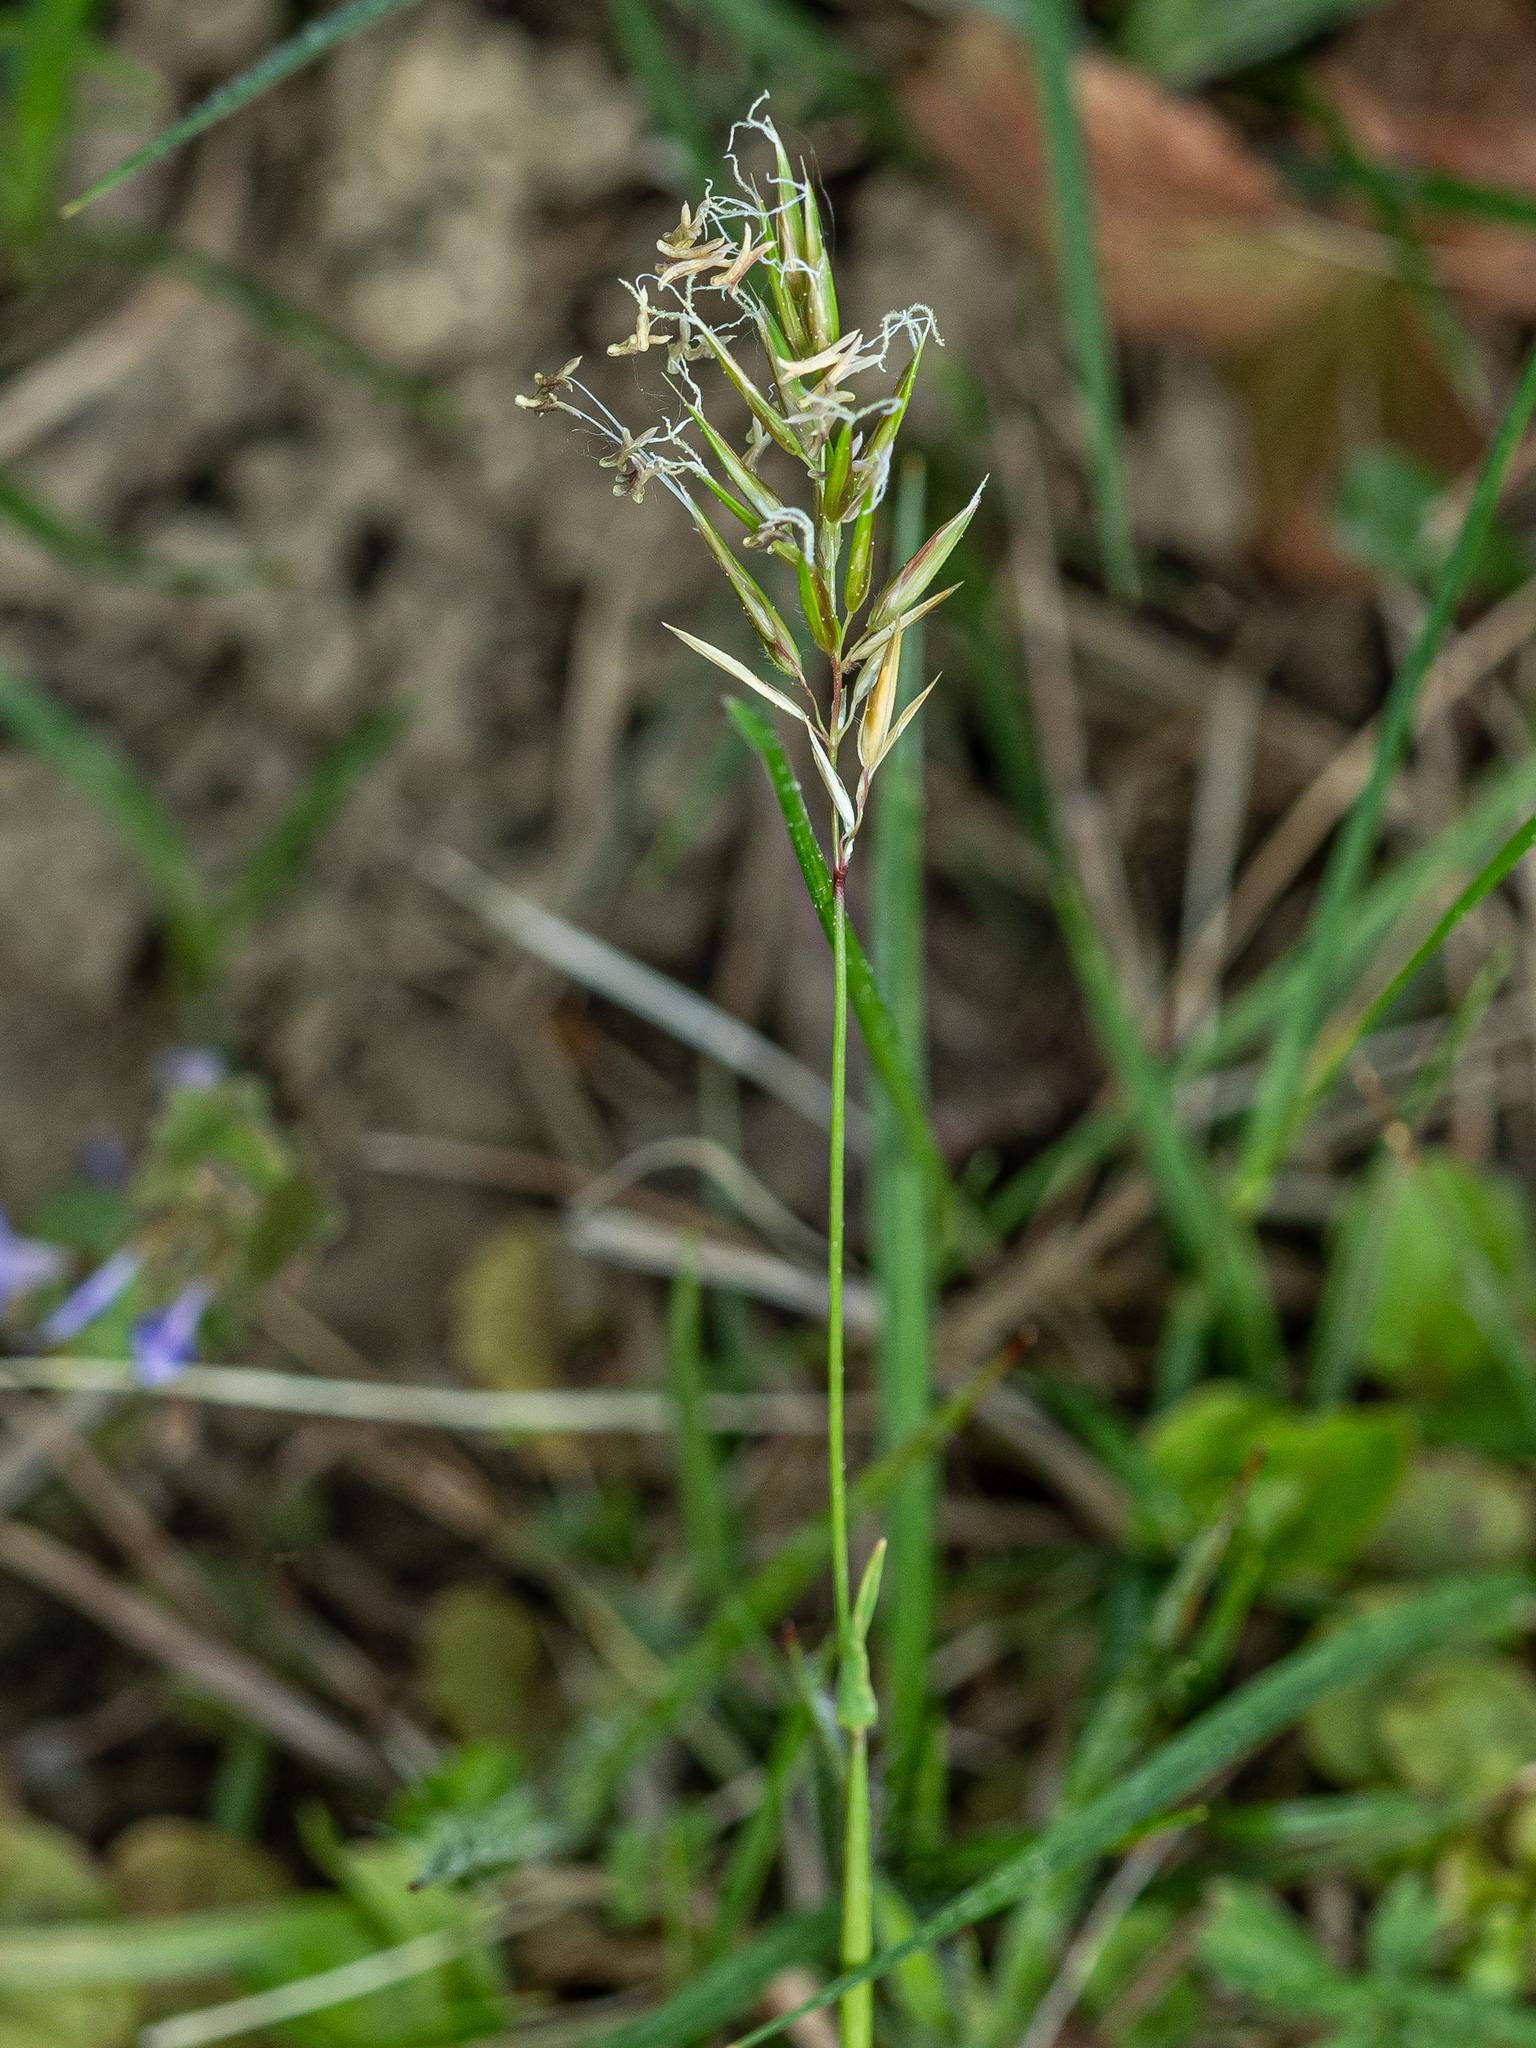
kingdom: Plantae
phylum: Tracheophyta
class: Liliopsida
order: Poales
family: Poaceae
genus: Anthoxanthum
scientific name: Anthoxanthum odoratum
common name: Sweet vernalgrass
